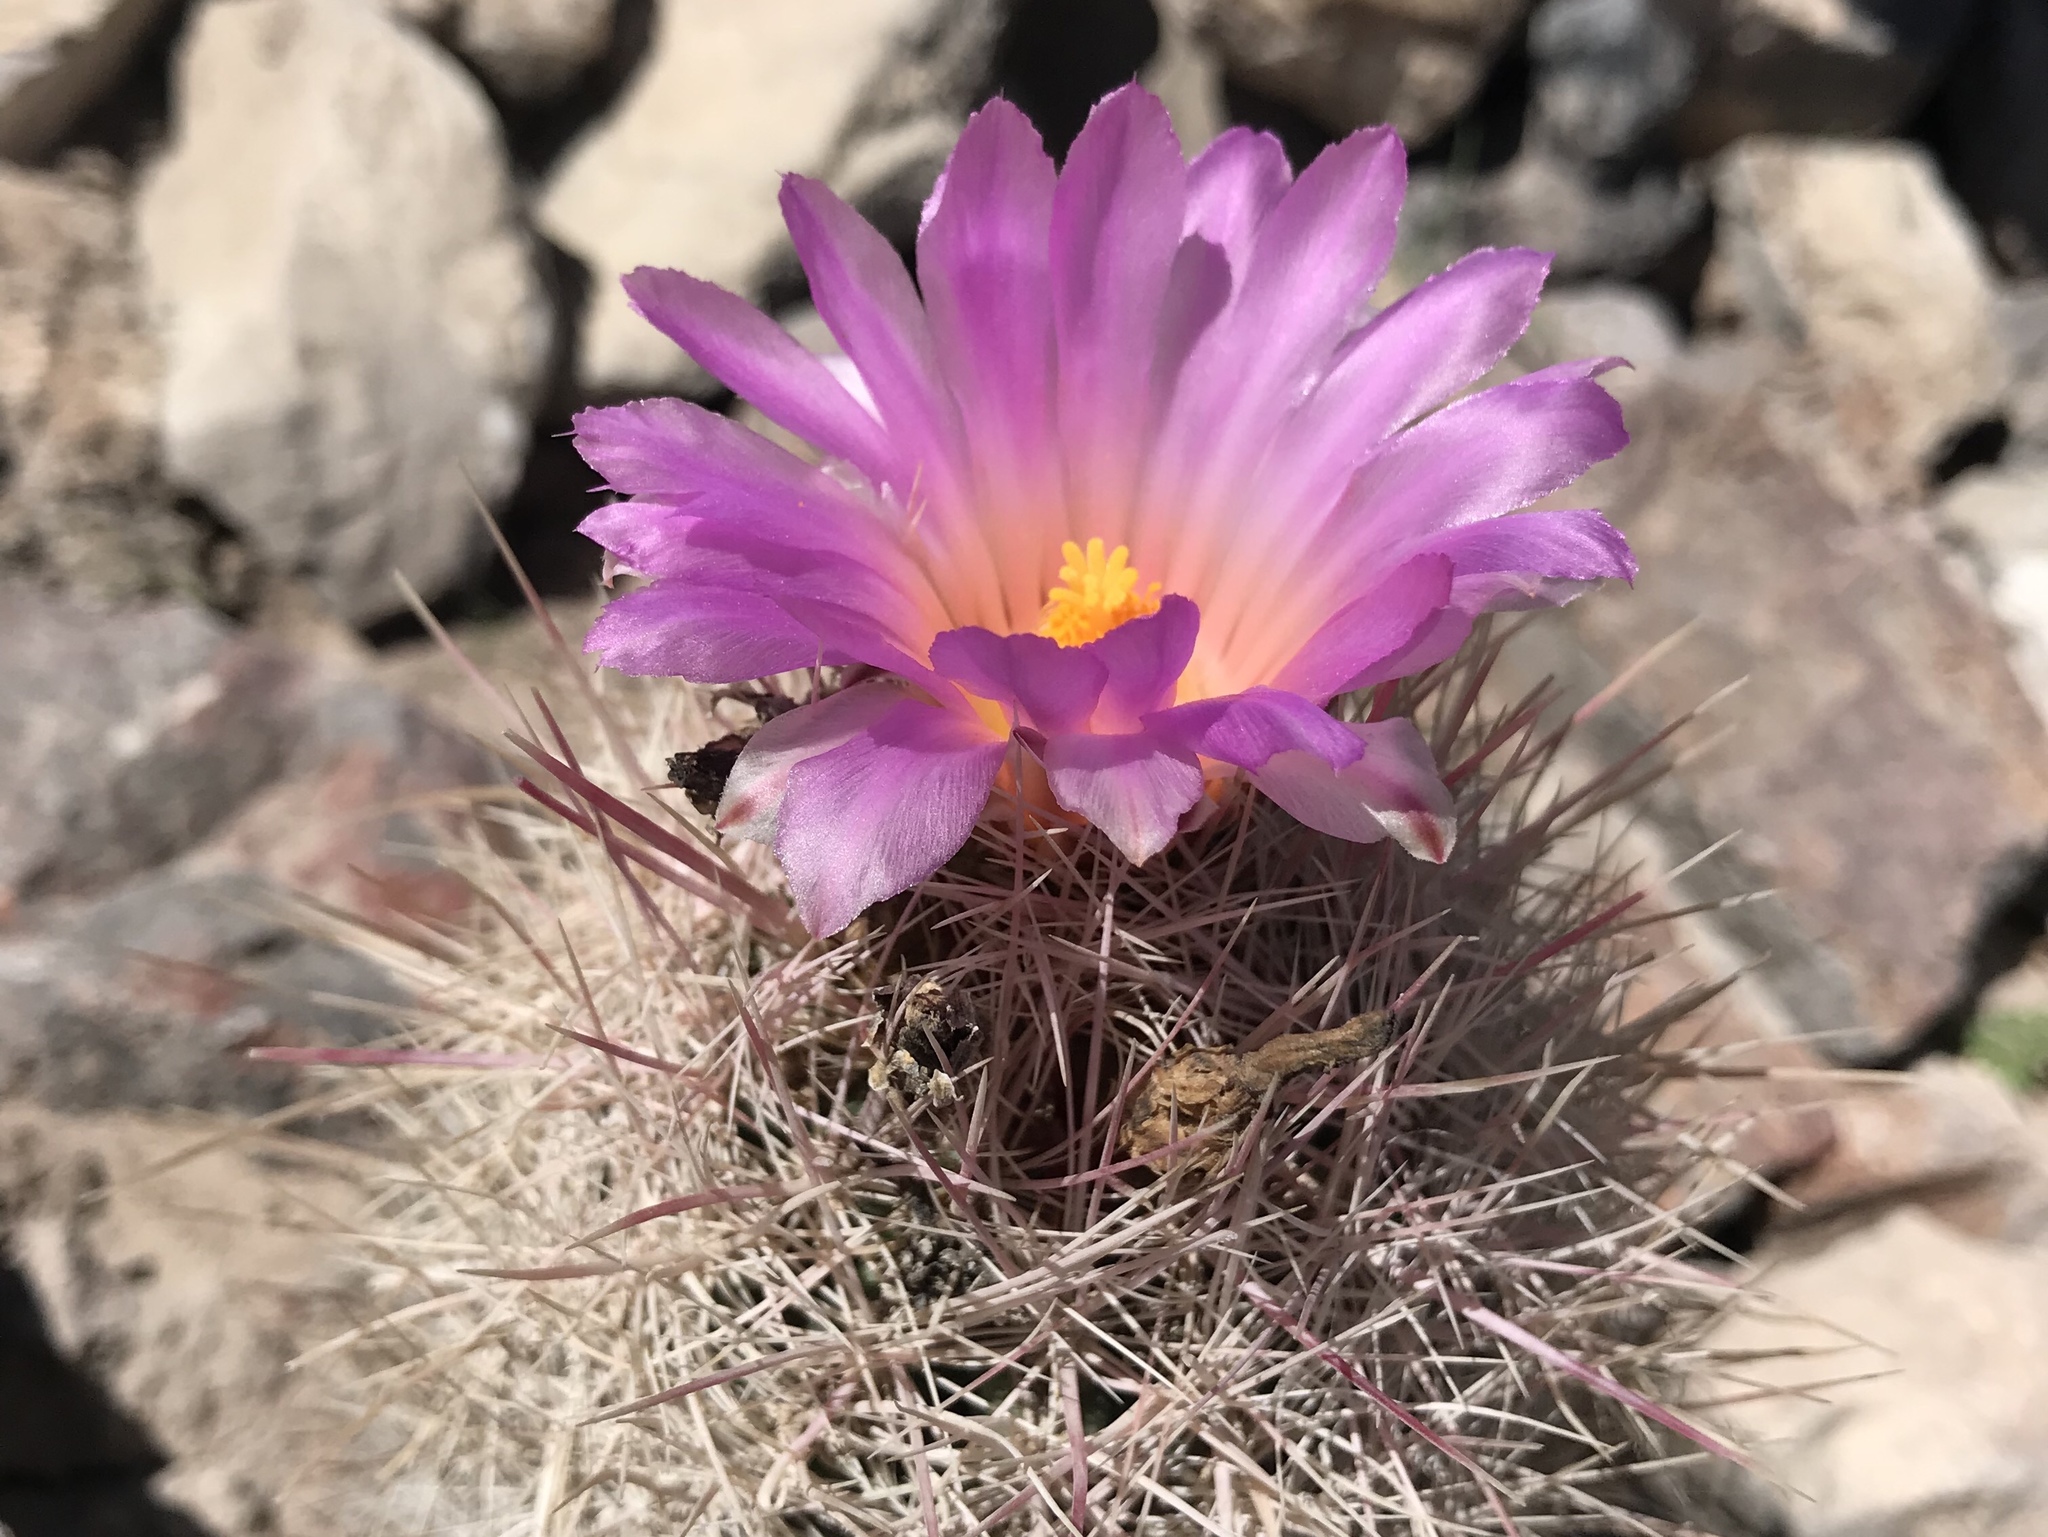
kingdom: Plantae
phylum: Tracheophyta
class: Magnoliopsida
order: Caryophyllales
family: Cactaceae
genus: Thelocactus
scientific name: Thelocactus bicolor
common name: Glory of texas
